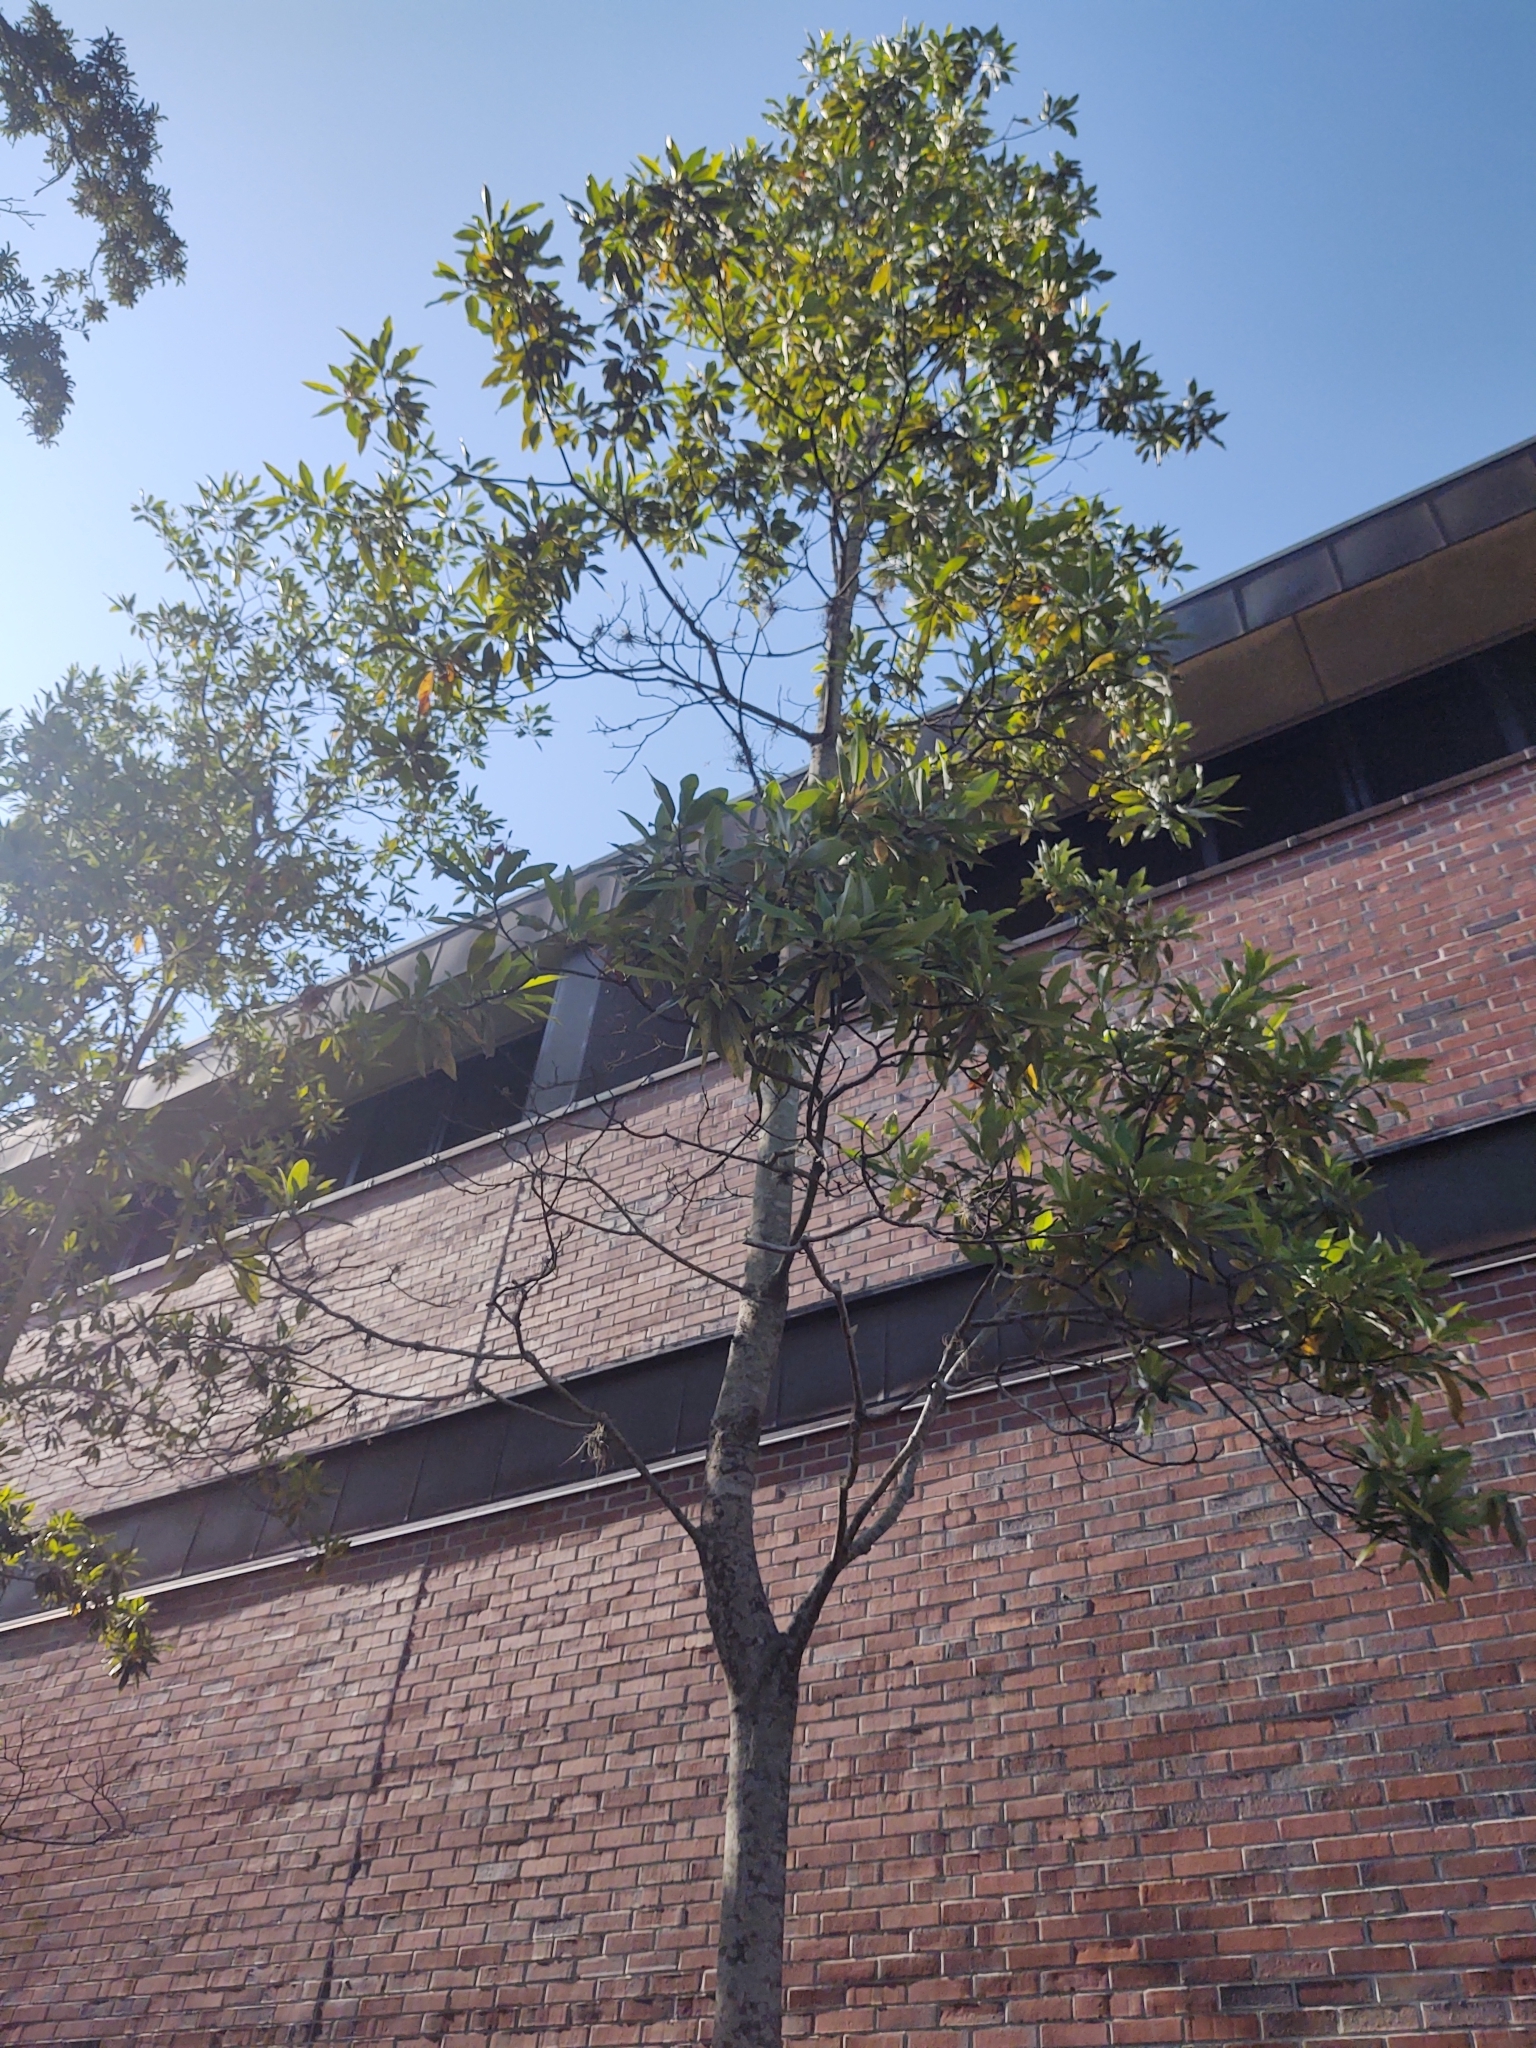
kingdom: Plantae
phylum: Tracheophyta
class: Magnoliopsida
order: Magnoliales
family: Magnoliaceae
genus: Magnolia
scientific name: Magnolia virginiana
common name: Swamp bay
